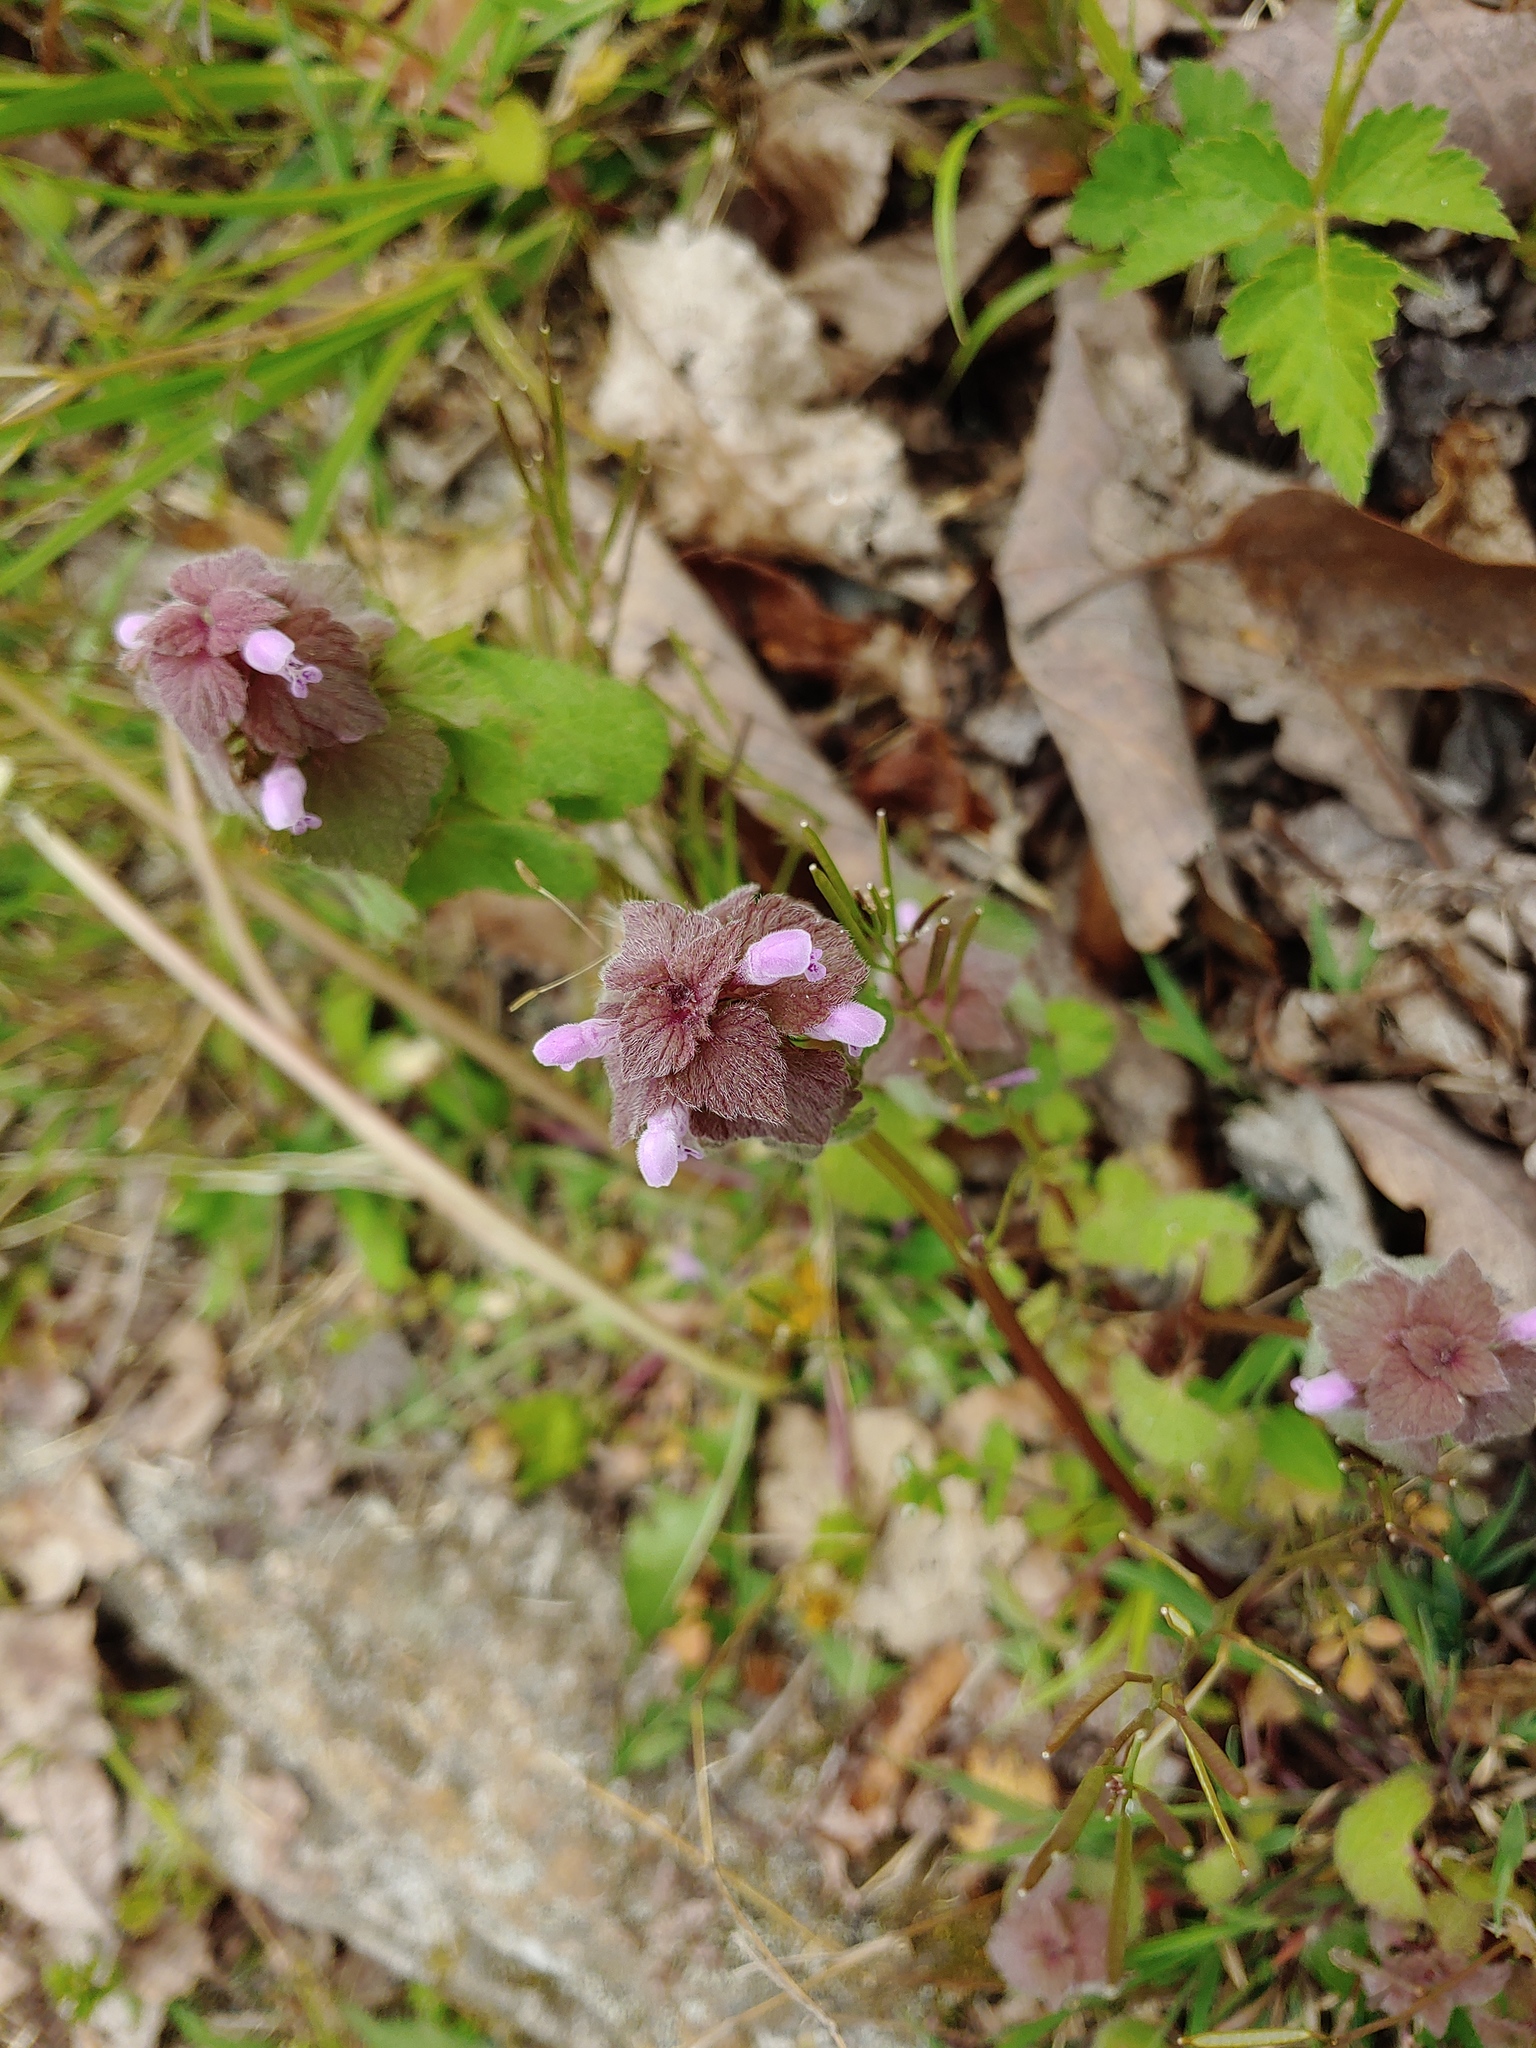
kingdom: Plantae
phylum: Tracheophyta
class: Magnoliopsida
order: Lamiales
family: Lamiaceae
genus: Lamium
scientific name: Lamium purpureum
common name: Red dead-nettle
